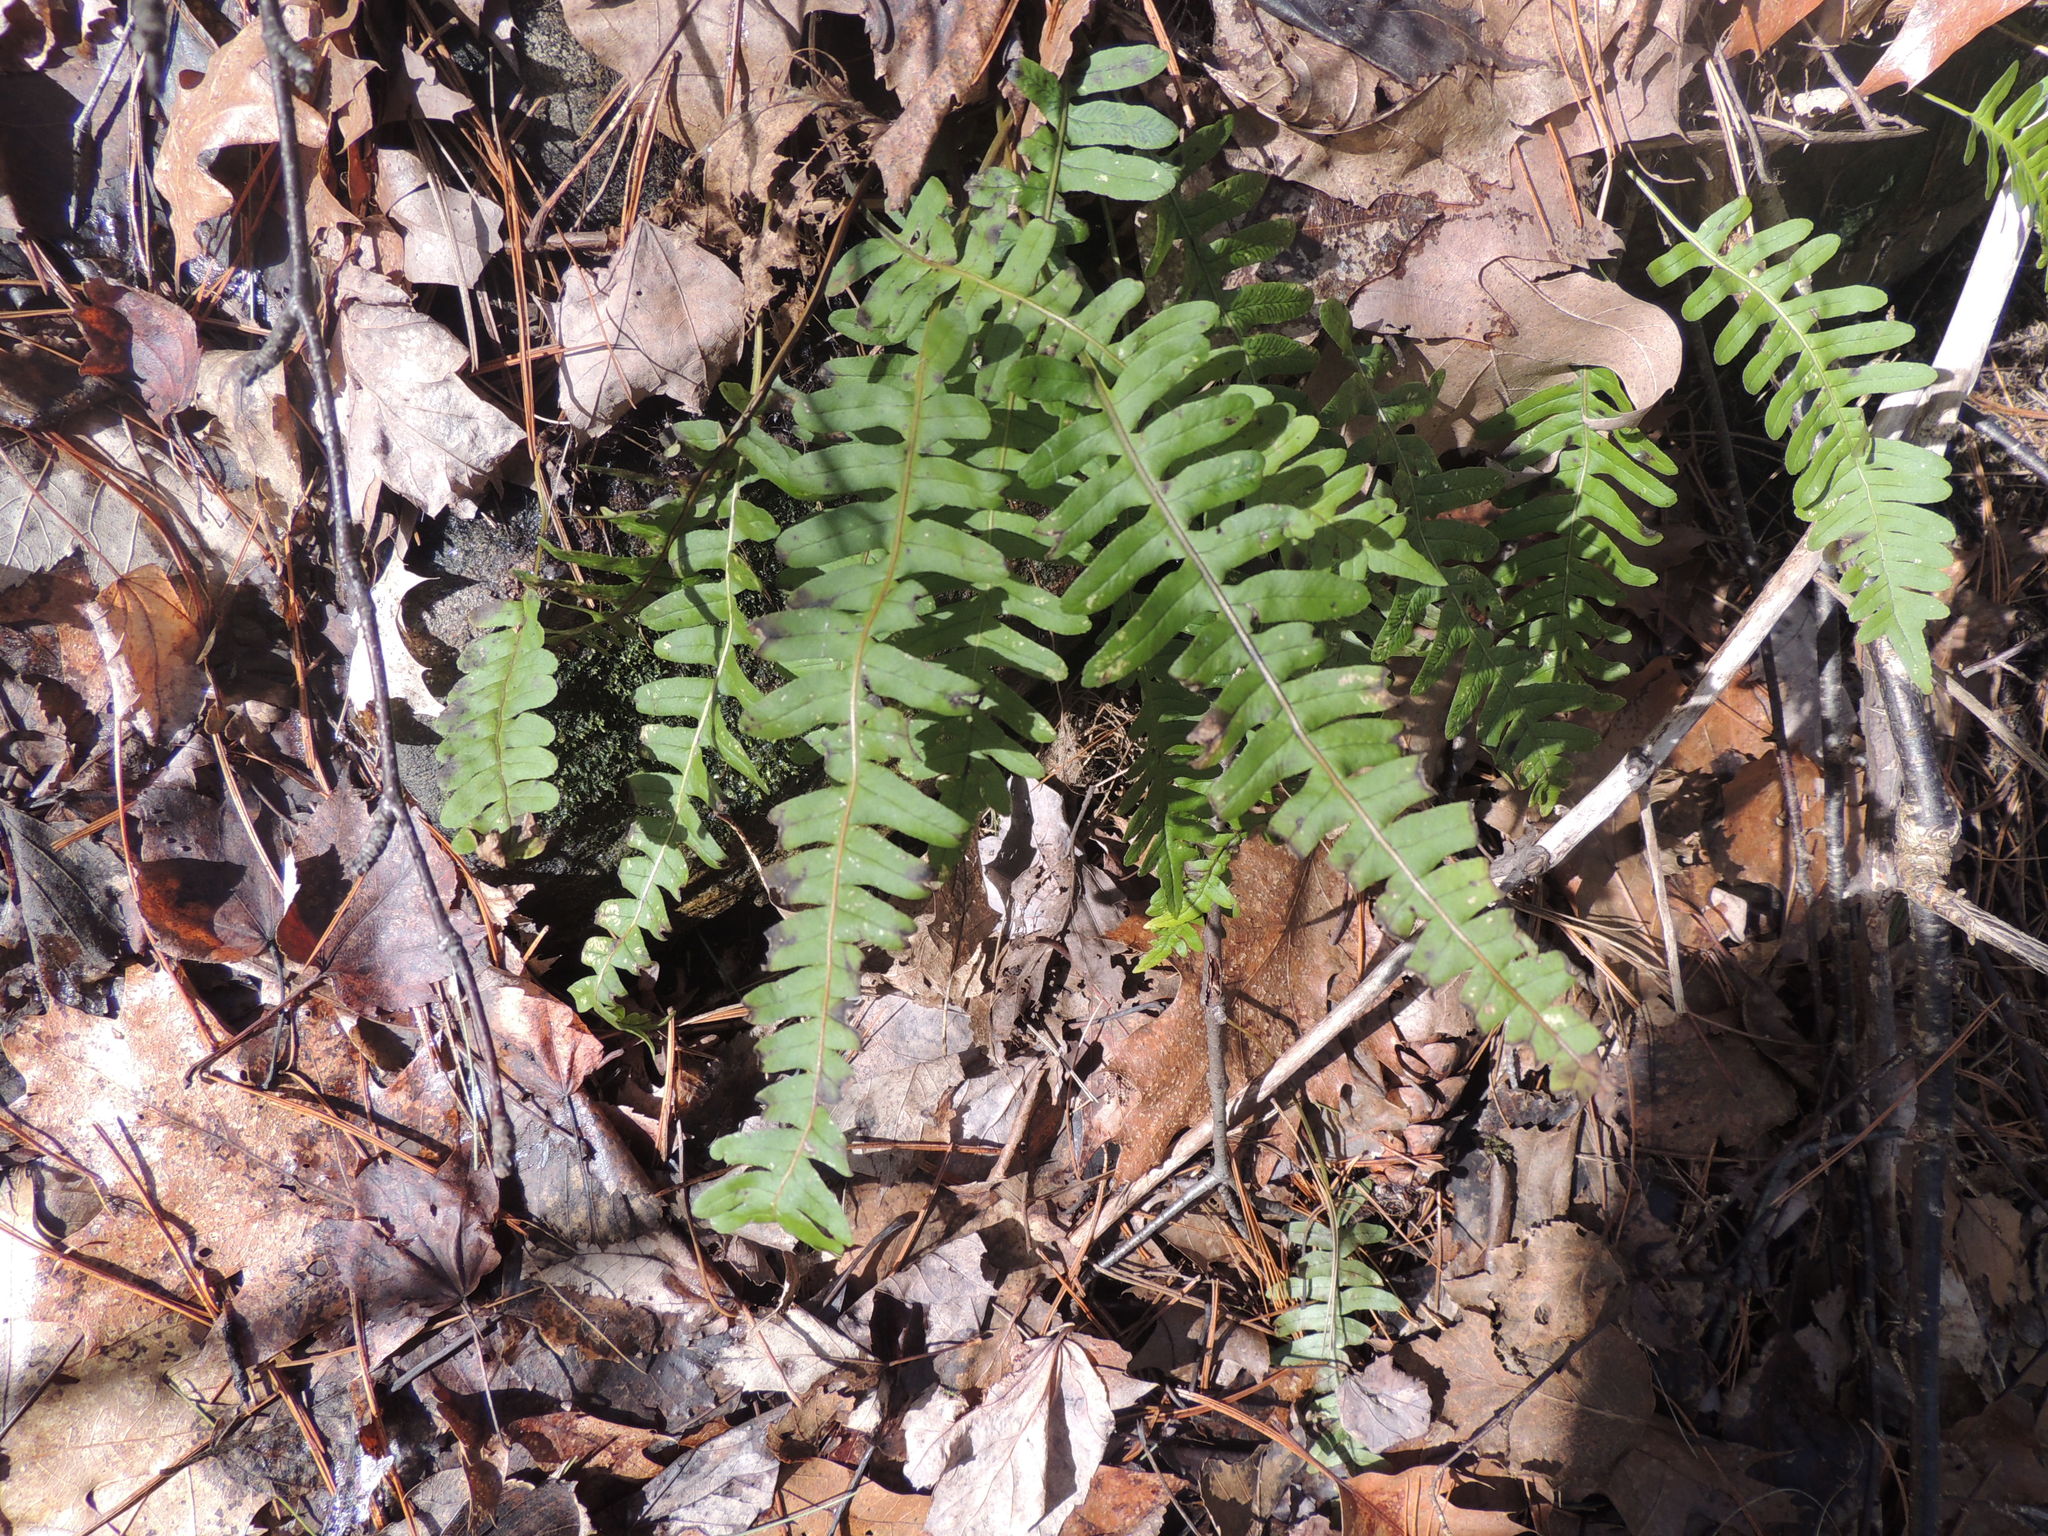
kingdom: Plantae
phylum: Tracheophyta
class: Polypodiopsida
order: Polypodiales
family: Polypodiaceae
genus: Polypodium
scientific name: Polypodium virginianum
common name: American wall fern
